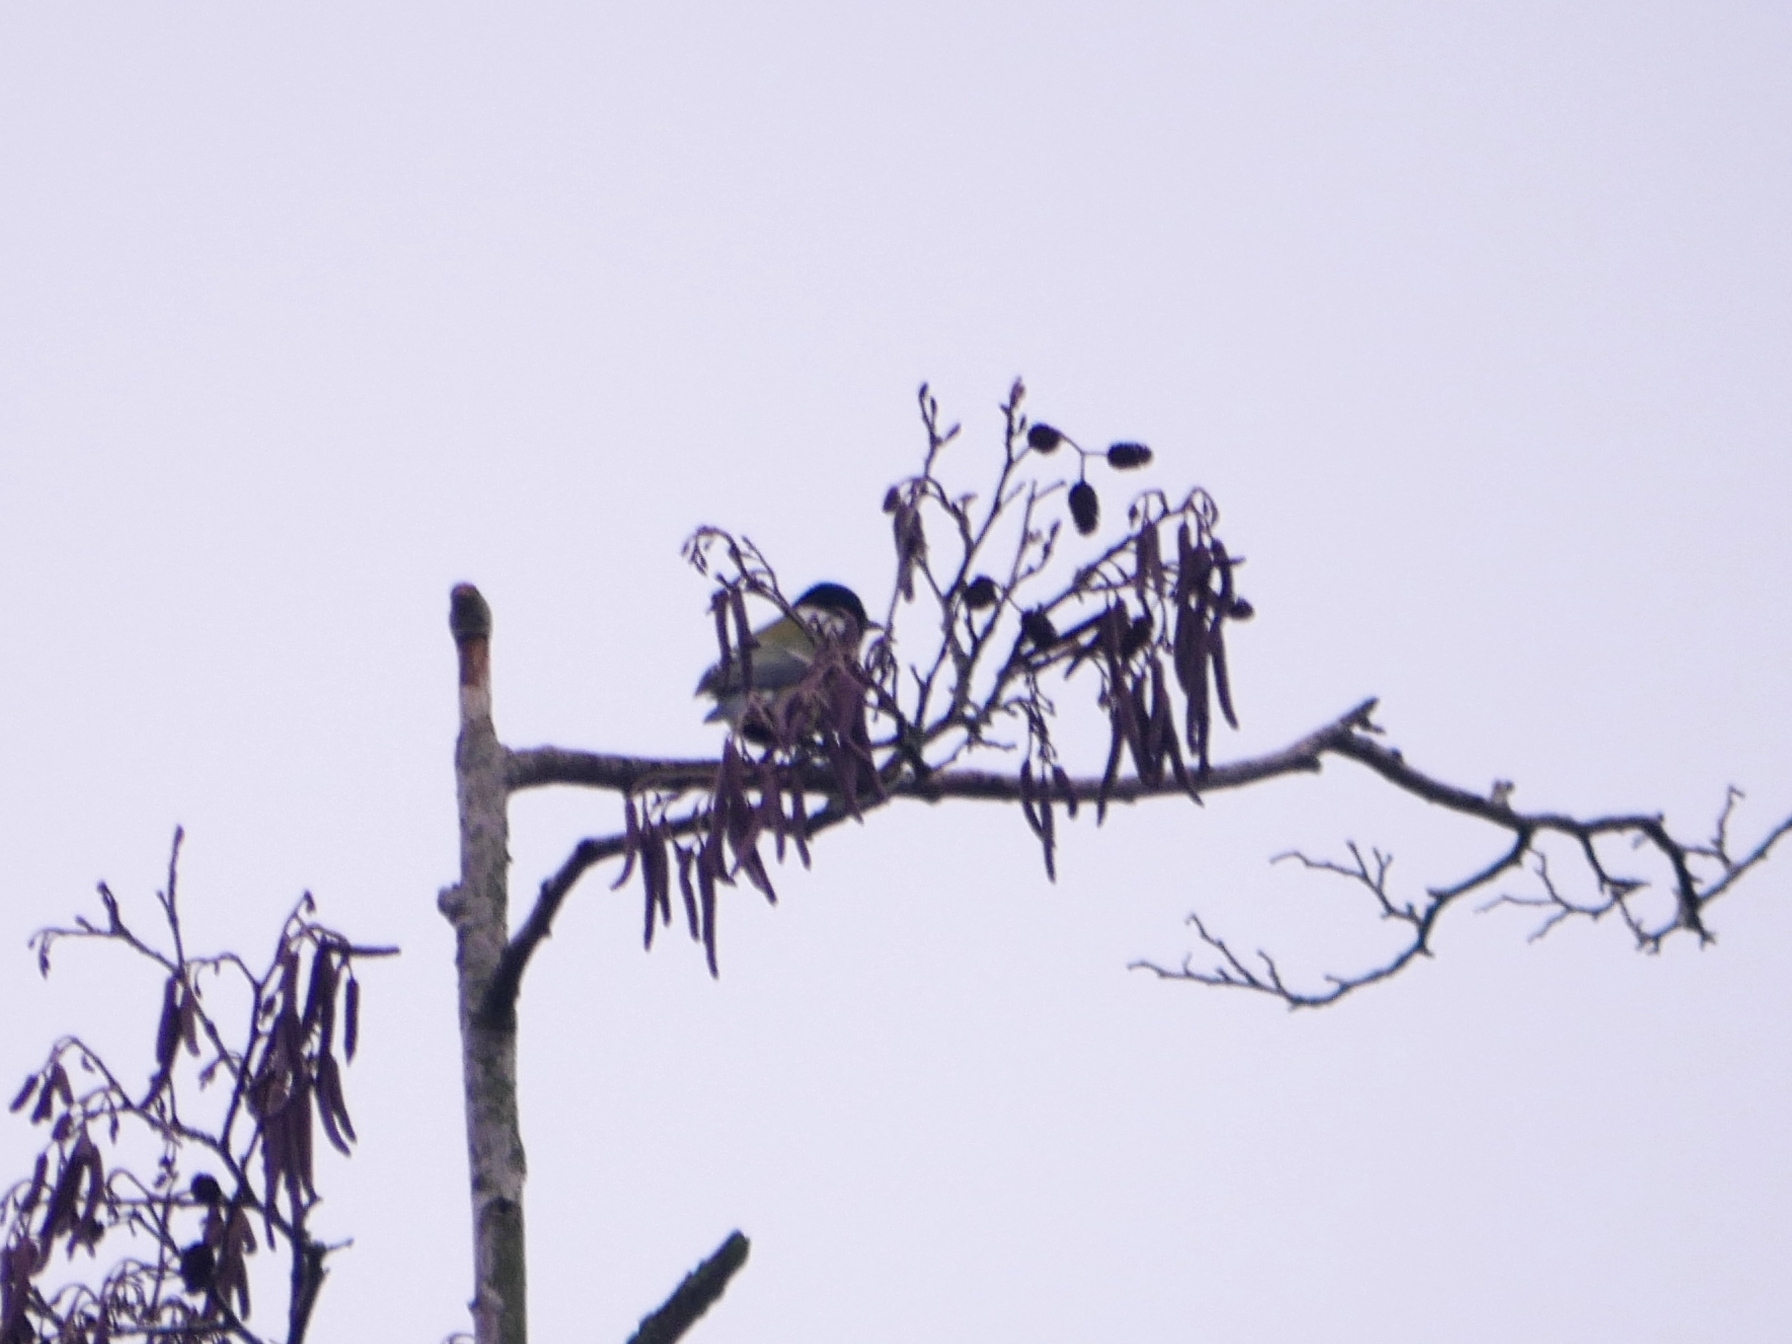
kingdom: Animalia
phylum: Chordata
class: Aves
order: Passeriformes
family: Paridae
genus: Parus
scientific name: Parus major
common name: Great tit
